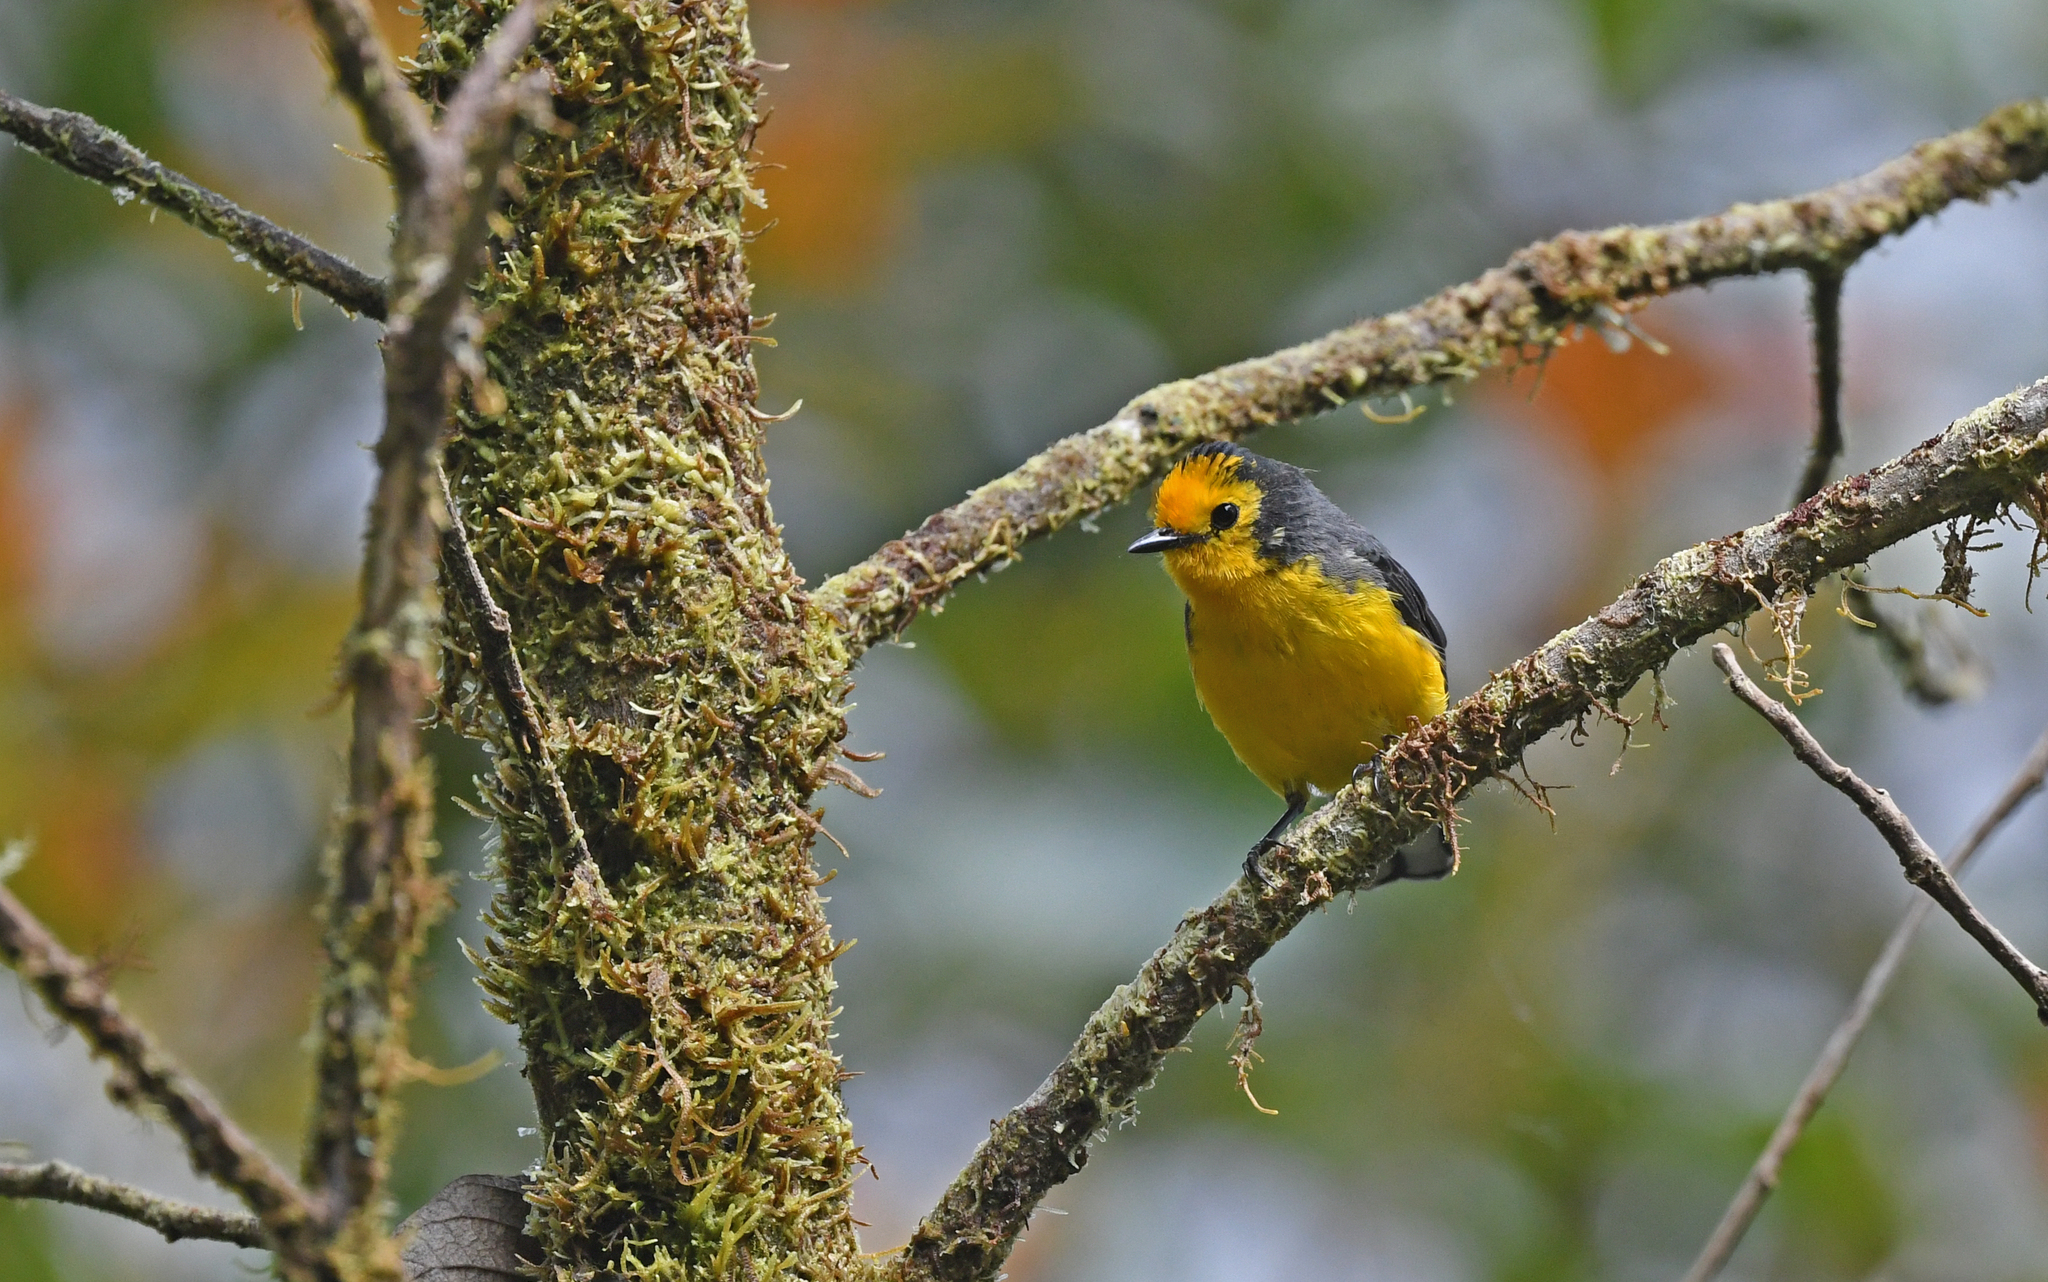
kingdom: Animalia
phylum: Chordata
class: Aves
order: Passeriformes
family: Parulidae
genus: Myioborus
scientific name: Myioborus ornatus
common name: Golden-fronted whitestart
